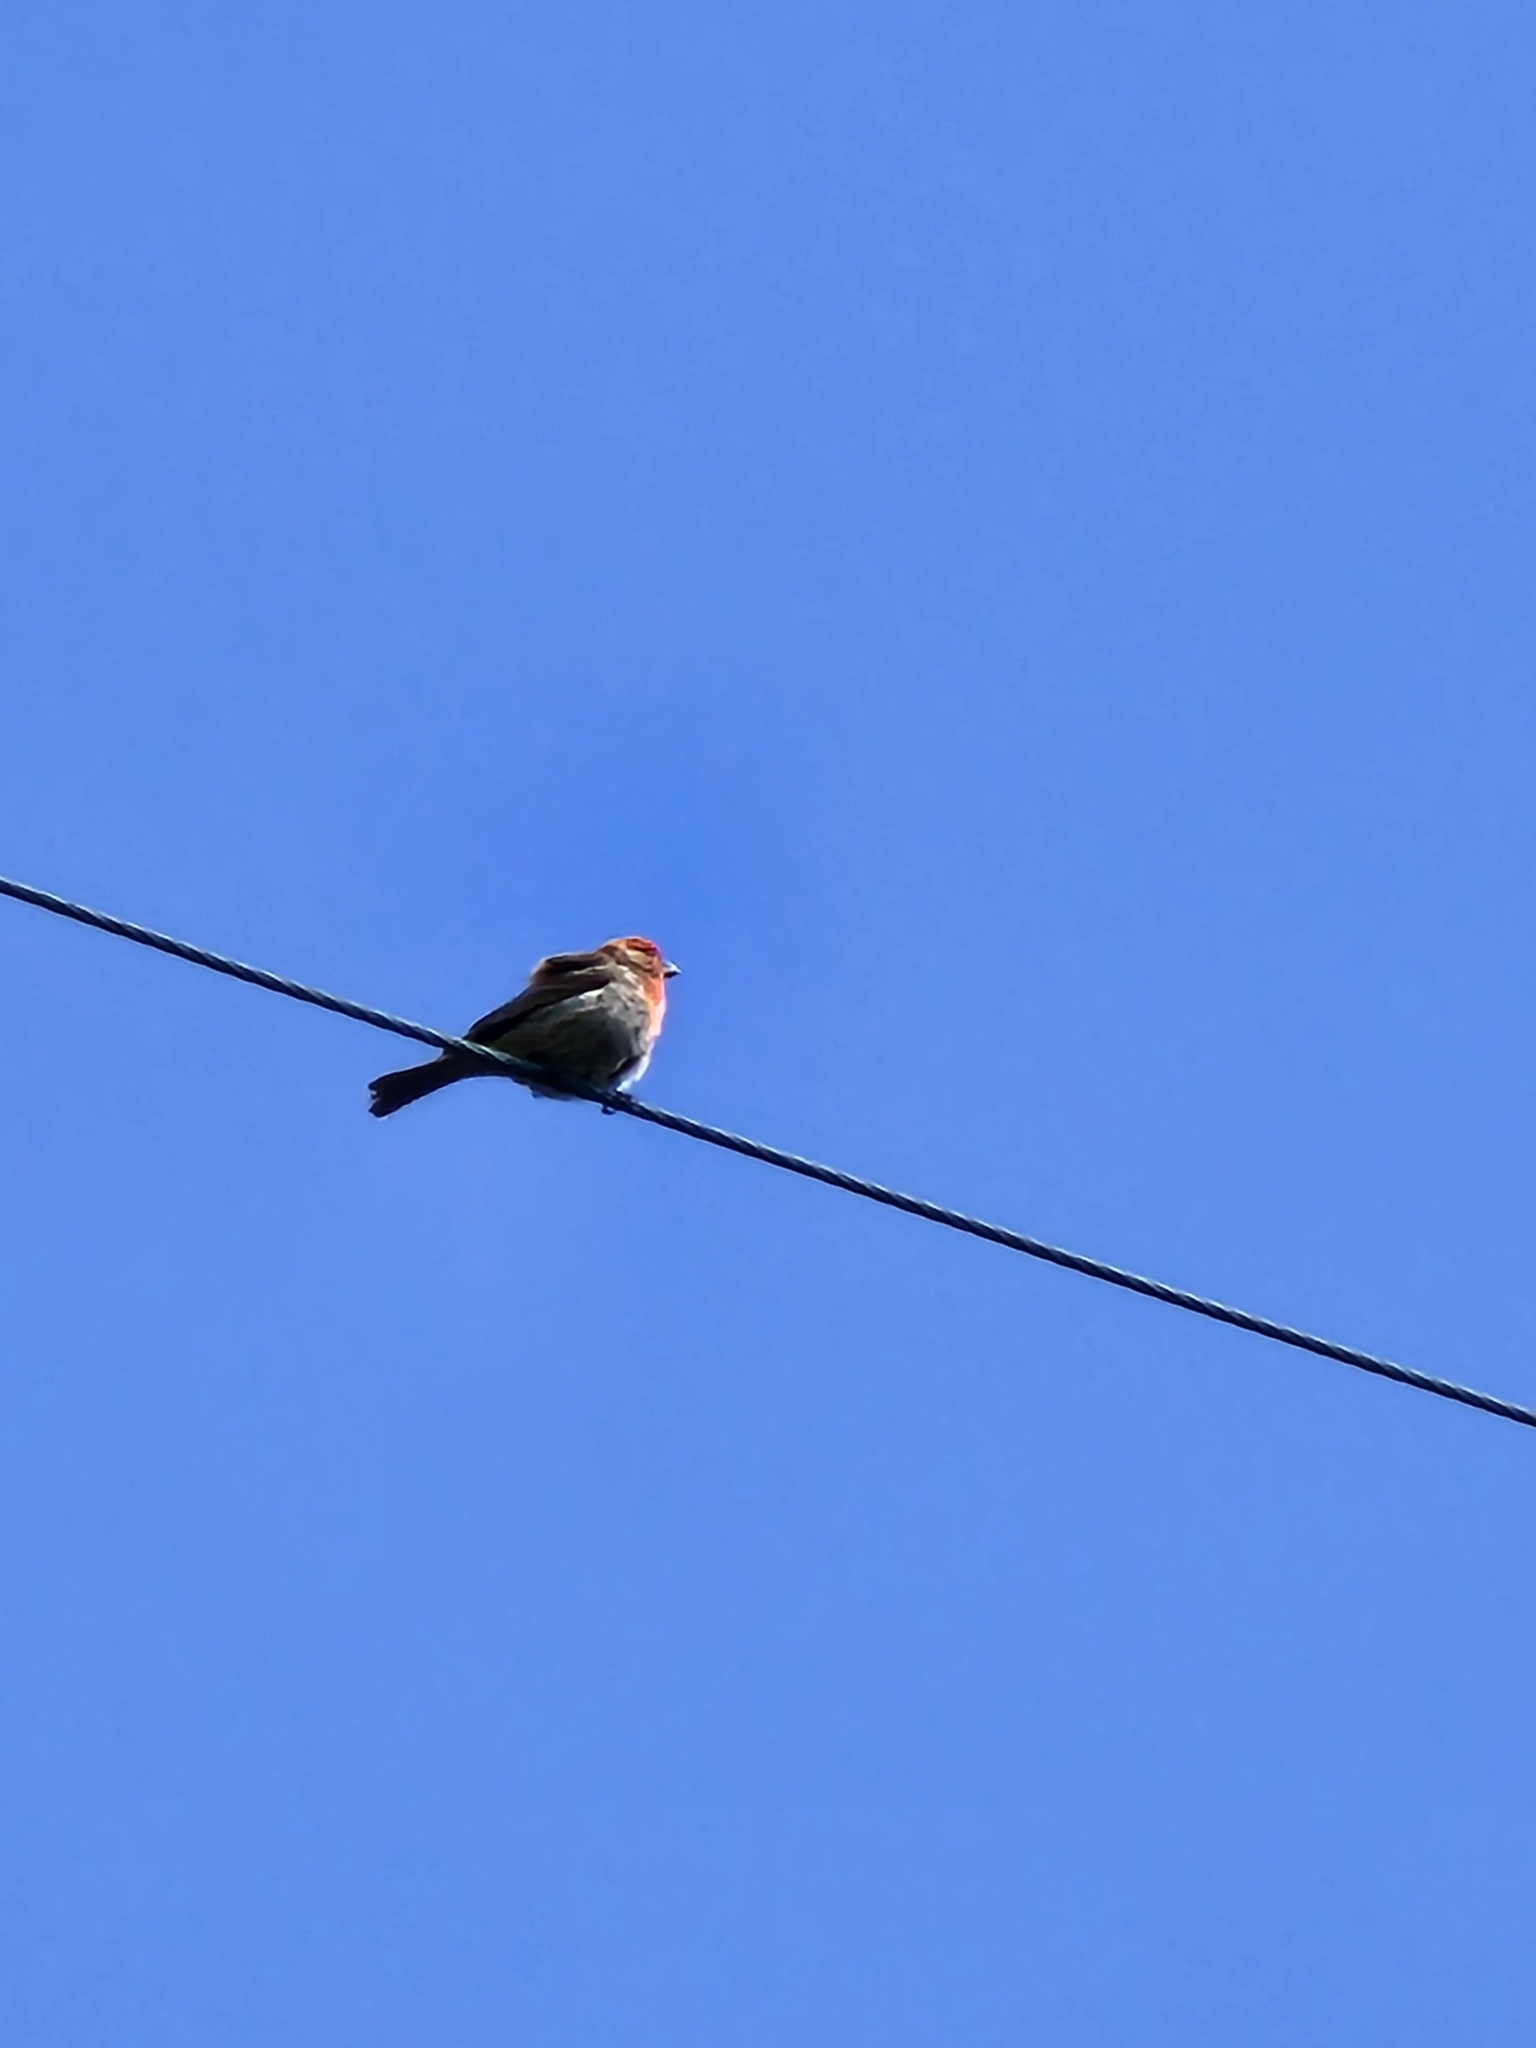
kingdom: Animalia
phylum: Chordata
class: Aves
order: Passeriformes
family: Fringillidae
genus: Haemorhous
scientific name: Haemorhous mexicanus
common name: House finch
